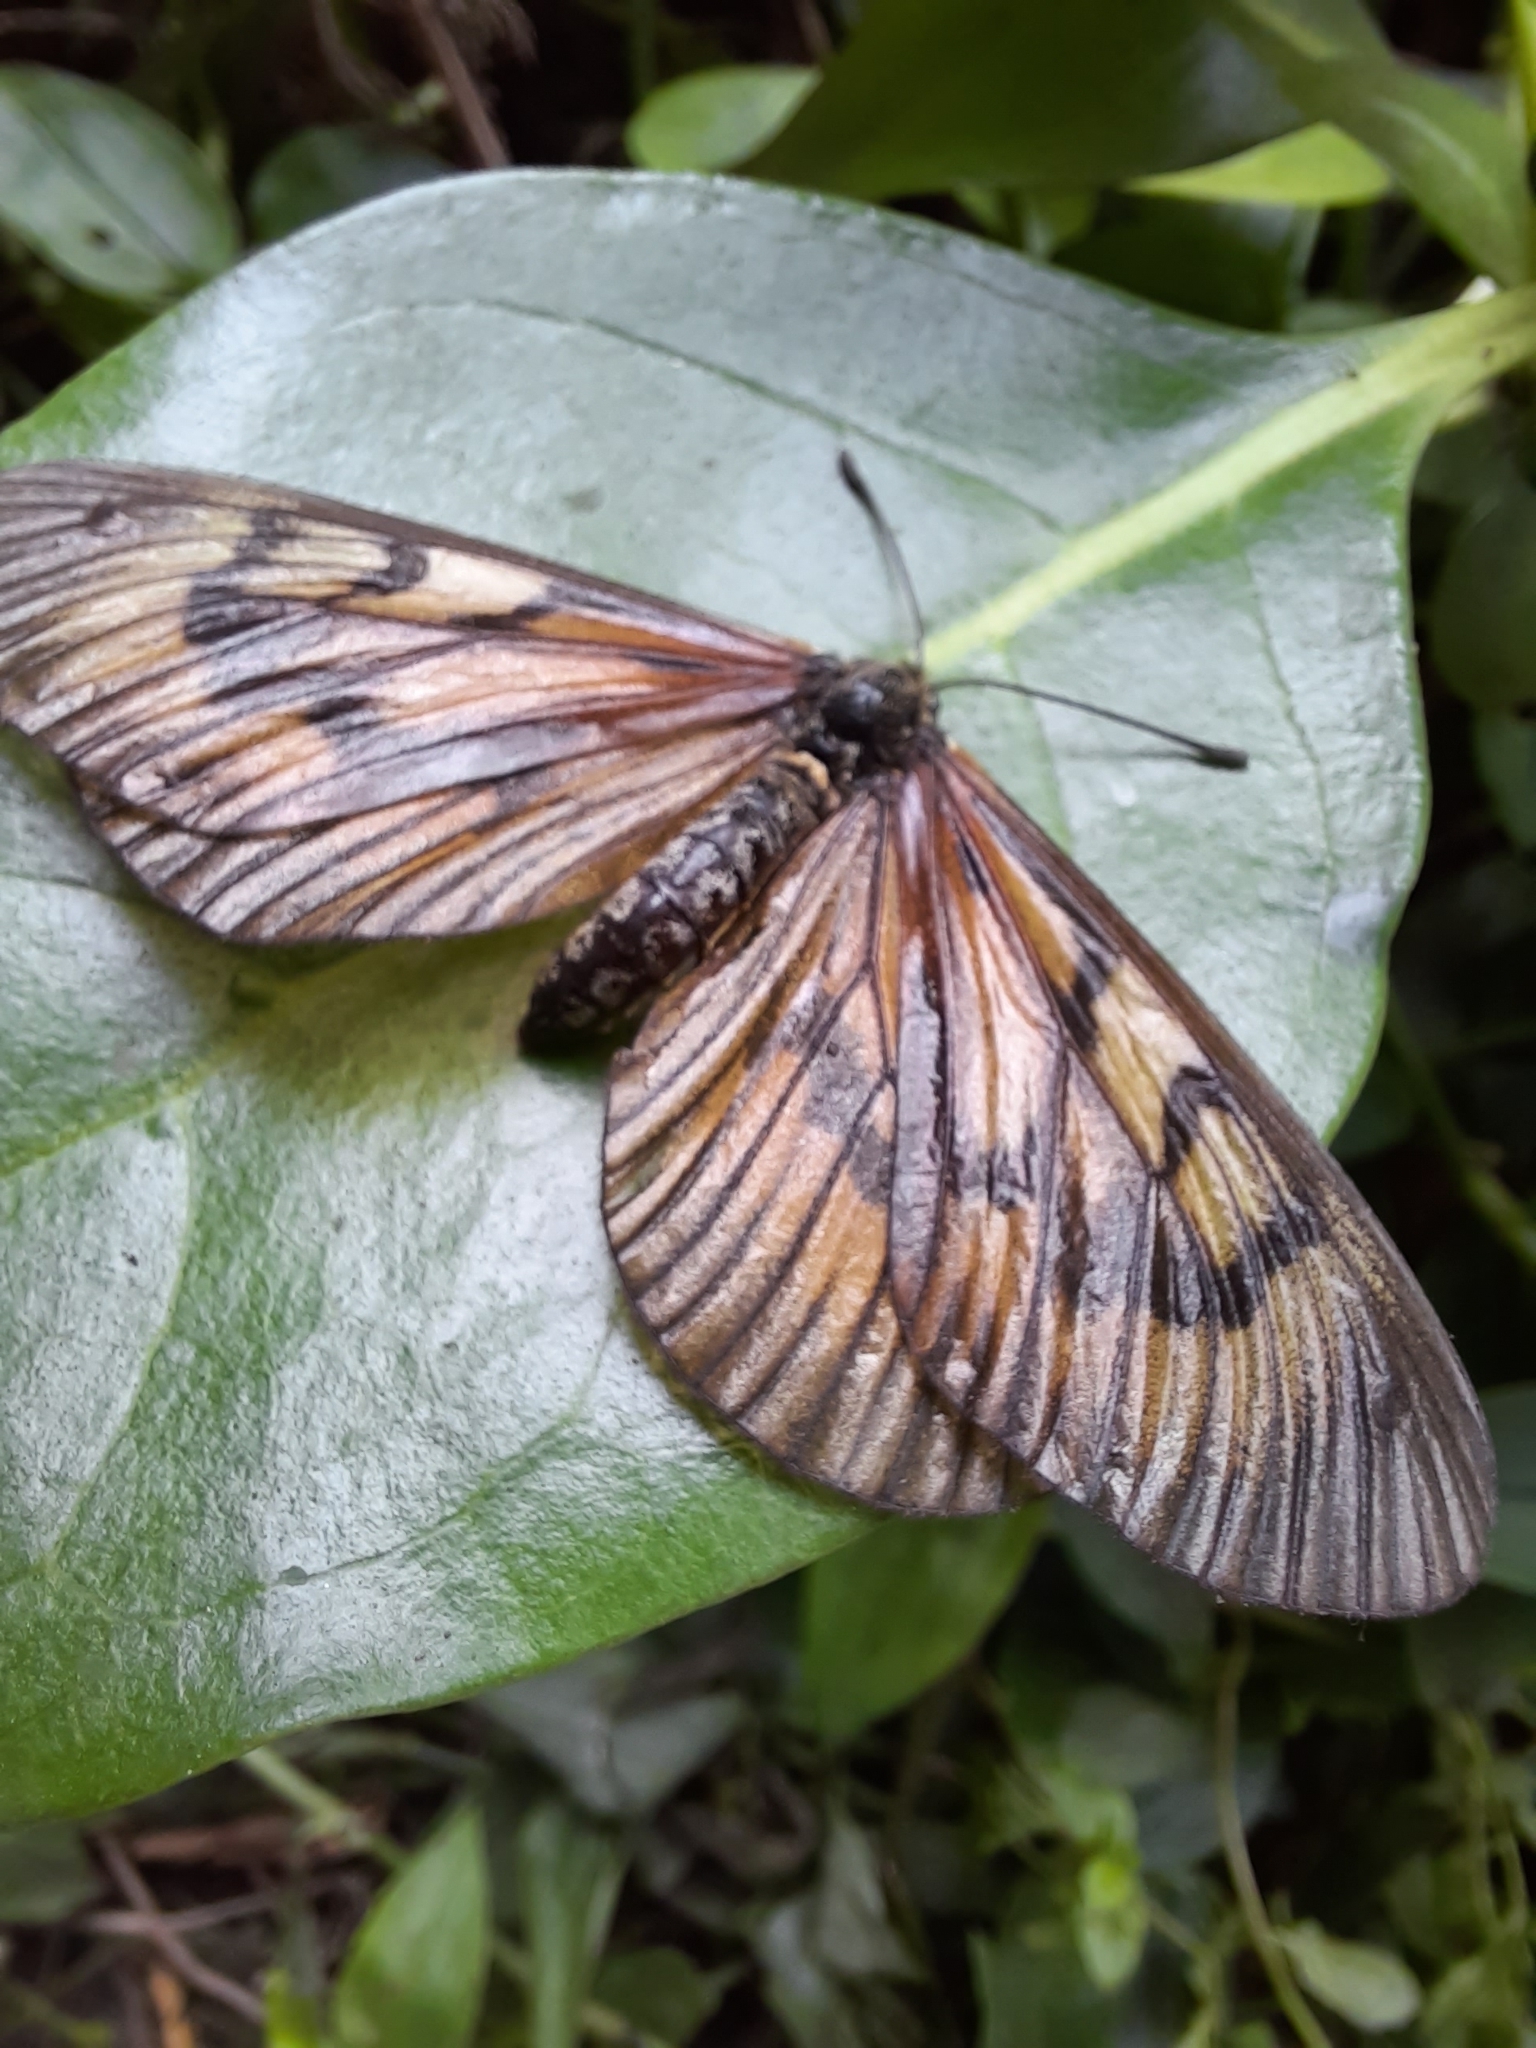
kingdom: Animalia
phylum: Arthropoda
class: Insecta
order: Lepidoptera
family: Nymphalidae
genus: Acraea
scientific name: Acraea momina
